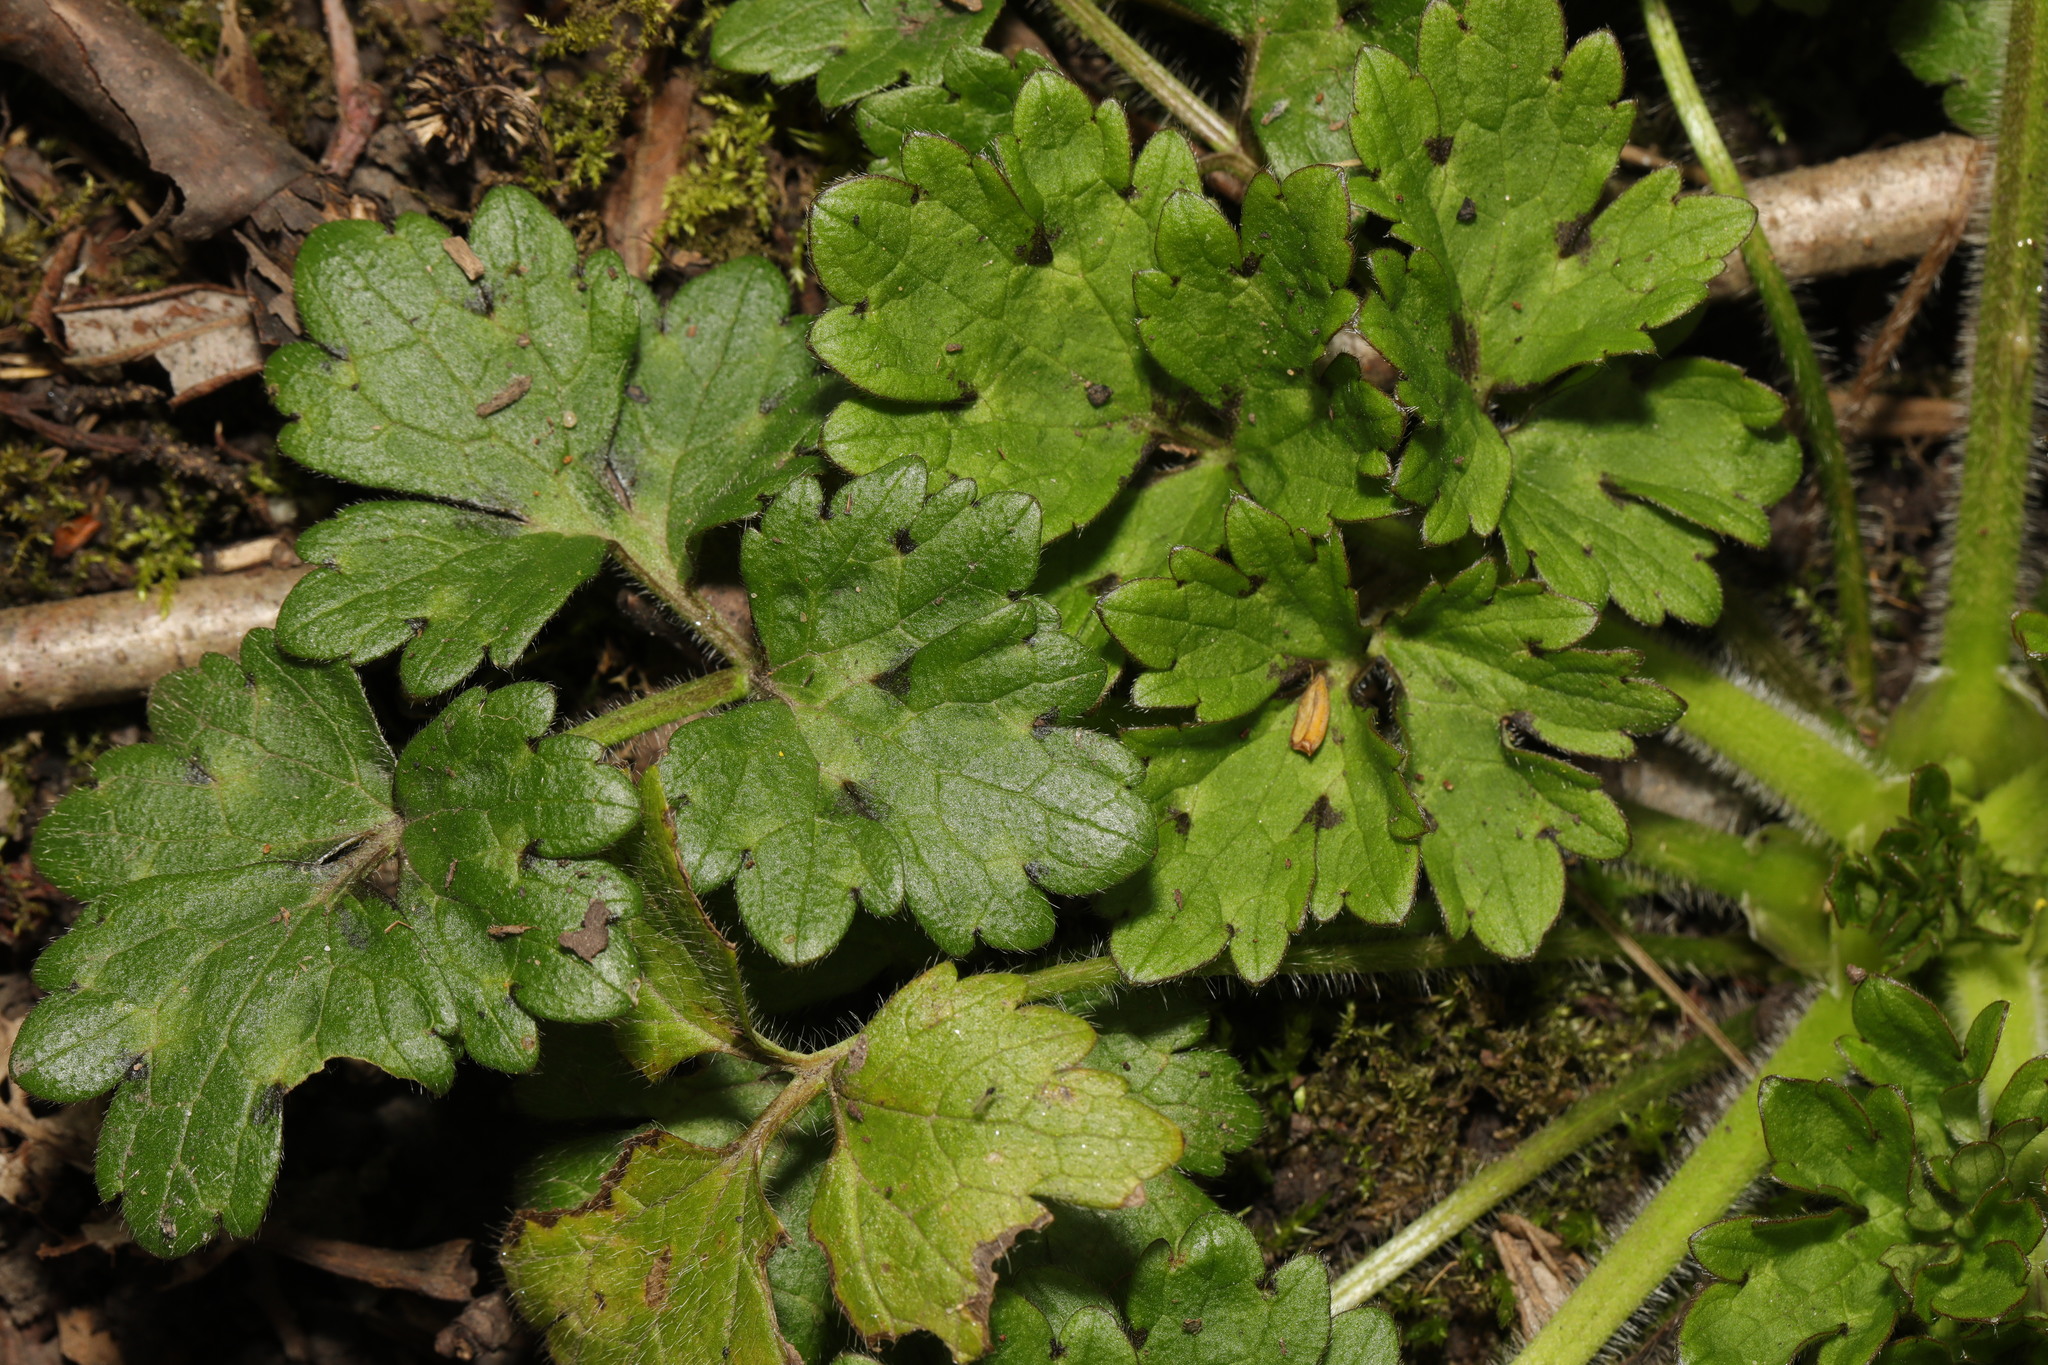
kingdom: Plantae
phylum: Tracheophyta
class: Magnoliopsida
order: Ranunculales
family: Ranunculaceae
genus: Ranunculus
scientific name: Ranunculus repens
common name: Creeping buttercup
